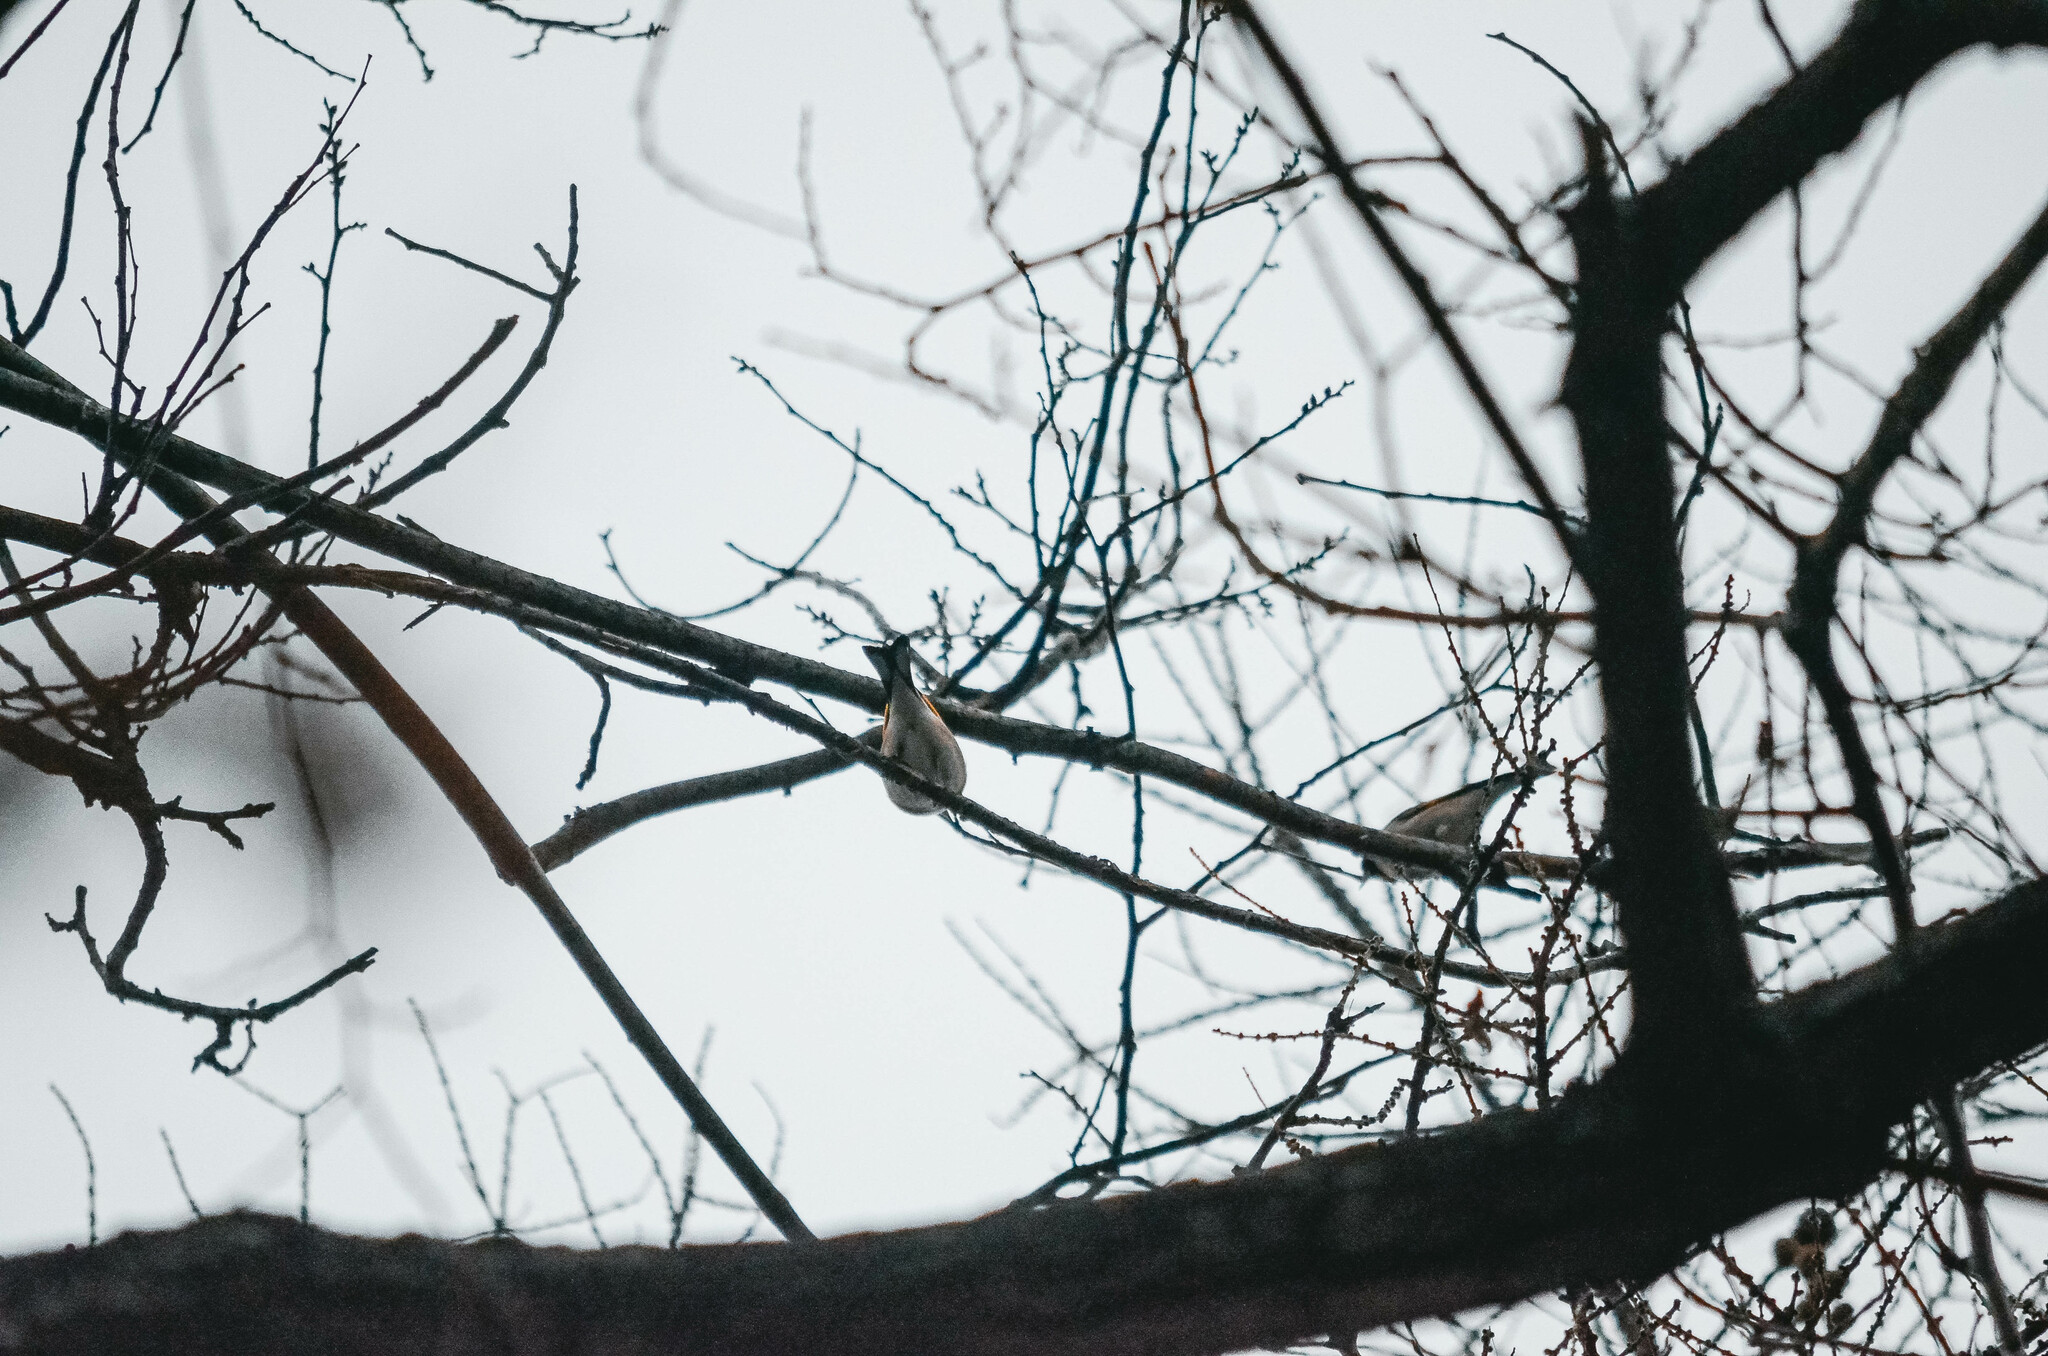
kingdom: Animalia
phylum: Chordata
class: Aves
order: Passeriformes
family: Fringillidae
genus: Carduelis
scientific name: Carduelis carduelis
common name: European goldfinch
